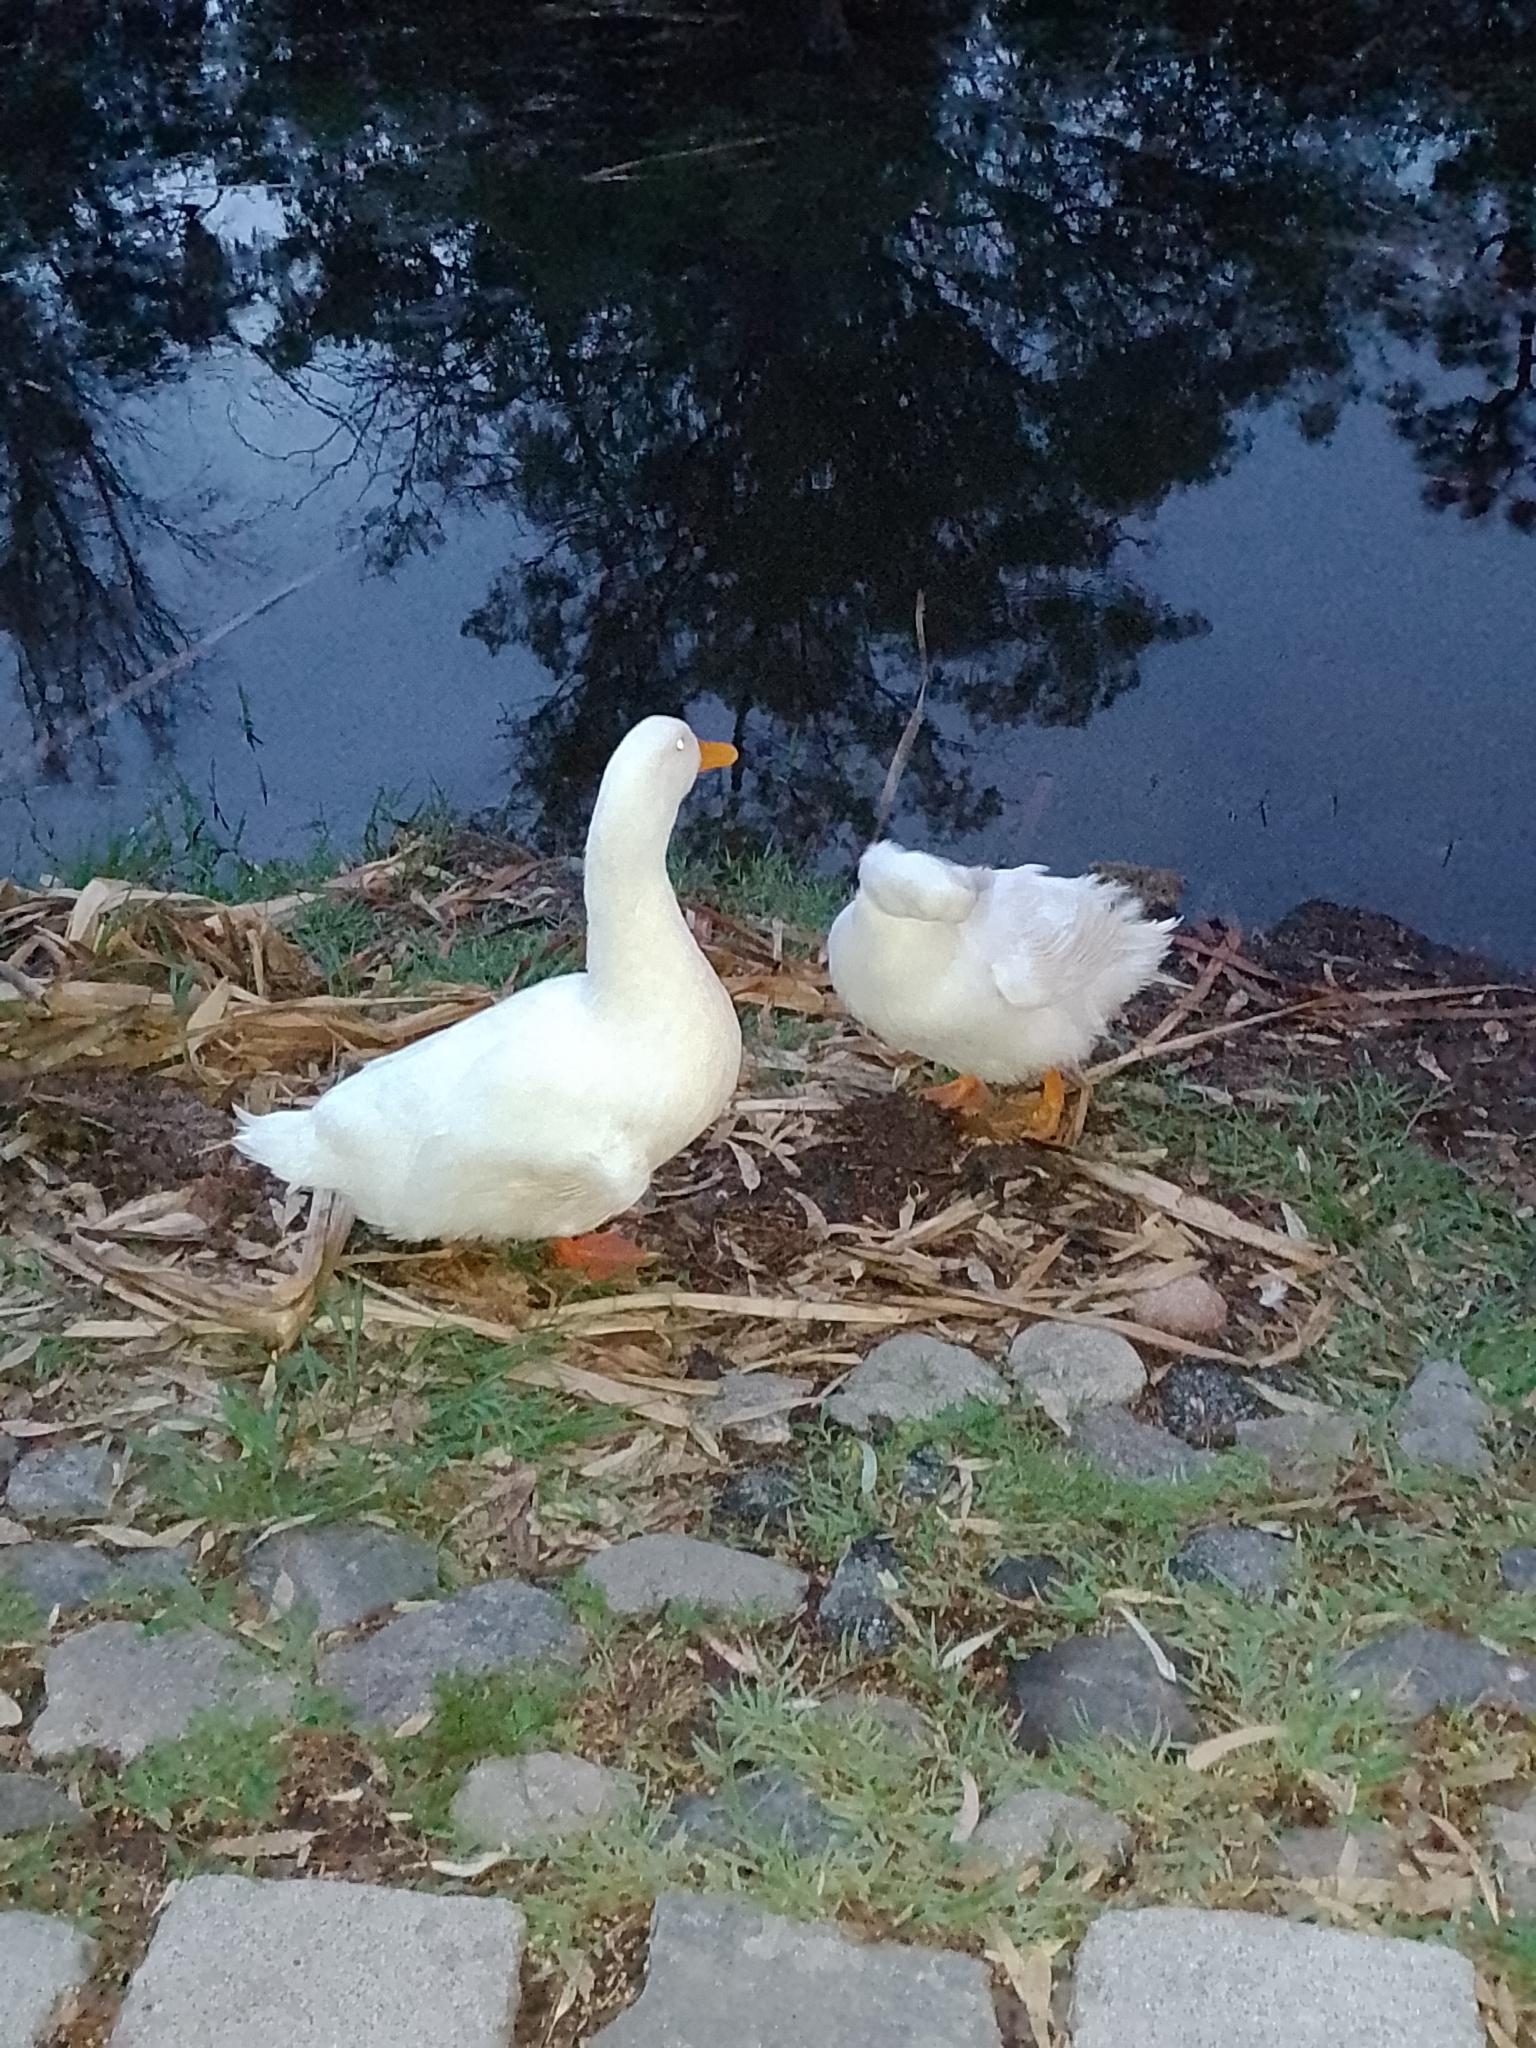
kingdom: Animalia
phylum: Chordata
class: Aves
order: Anseriformes
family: Anatidae
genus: Anas
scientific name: Anas platyrhynchos
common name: Mallard
